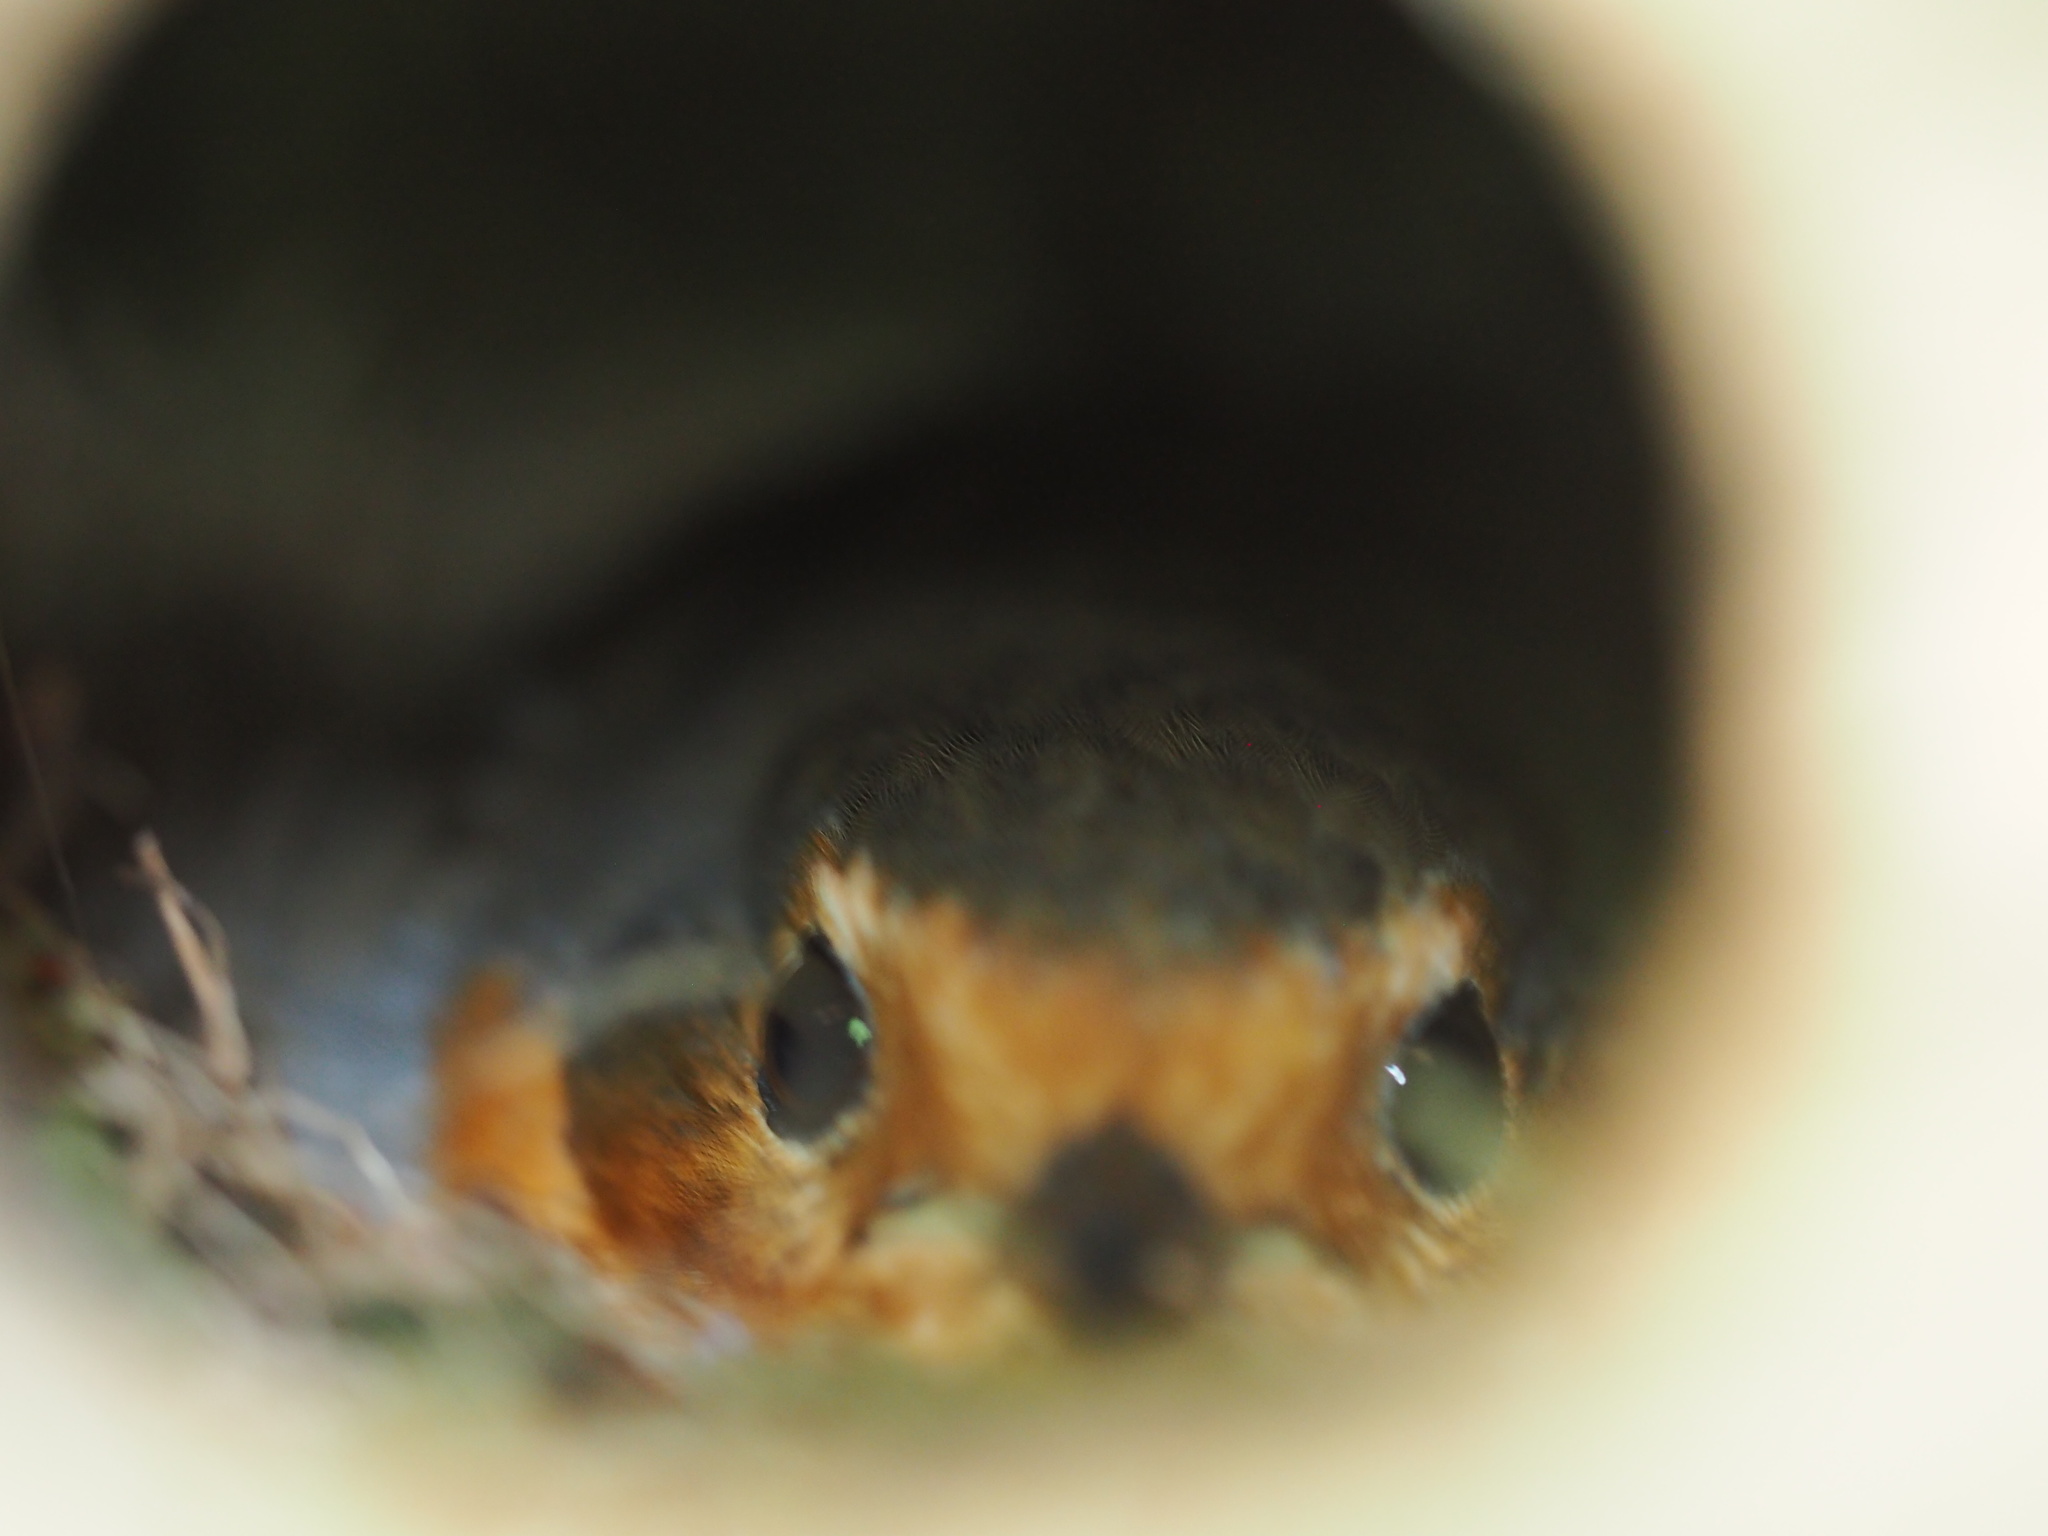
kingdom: Animalia
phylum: Chordata
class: Aves
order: Passeriformes
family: Muscicapidae
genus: Erithacus
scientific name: Erithacus rubecula
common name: European robin
